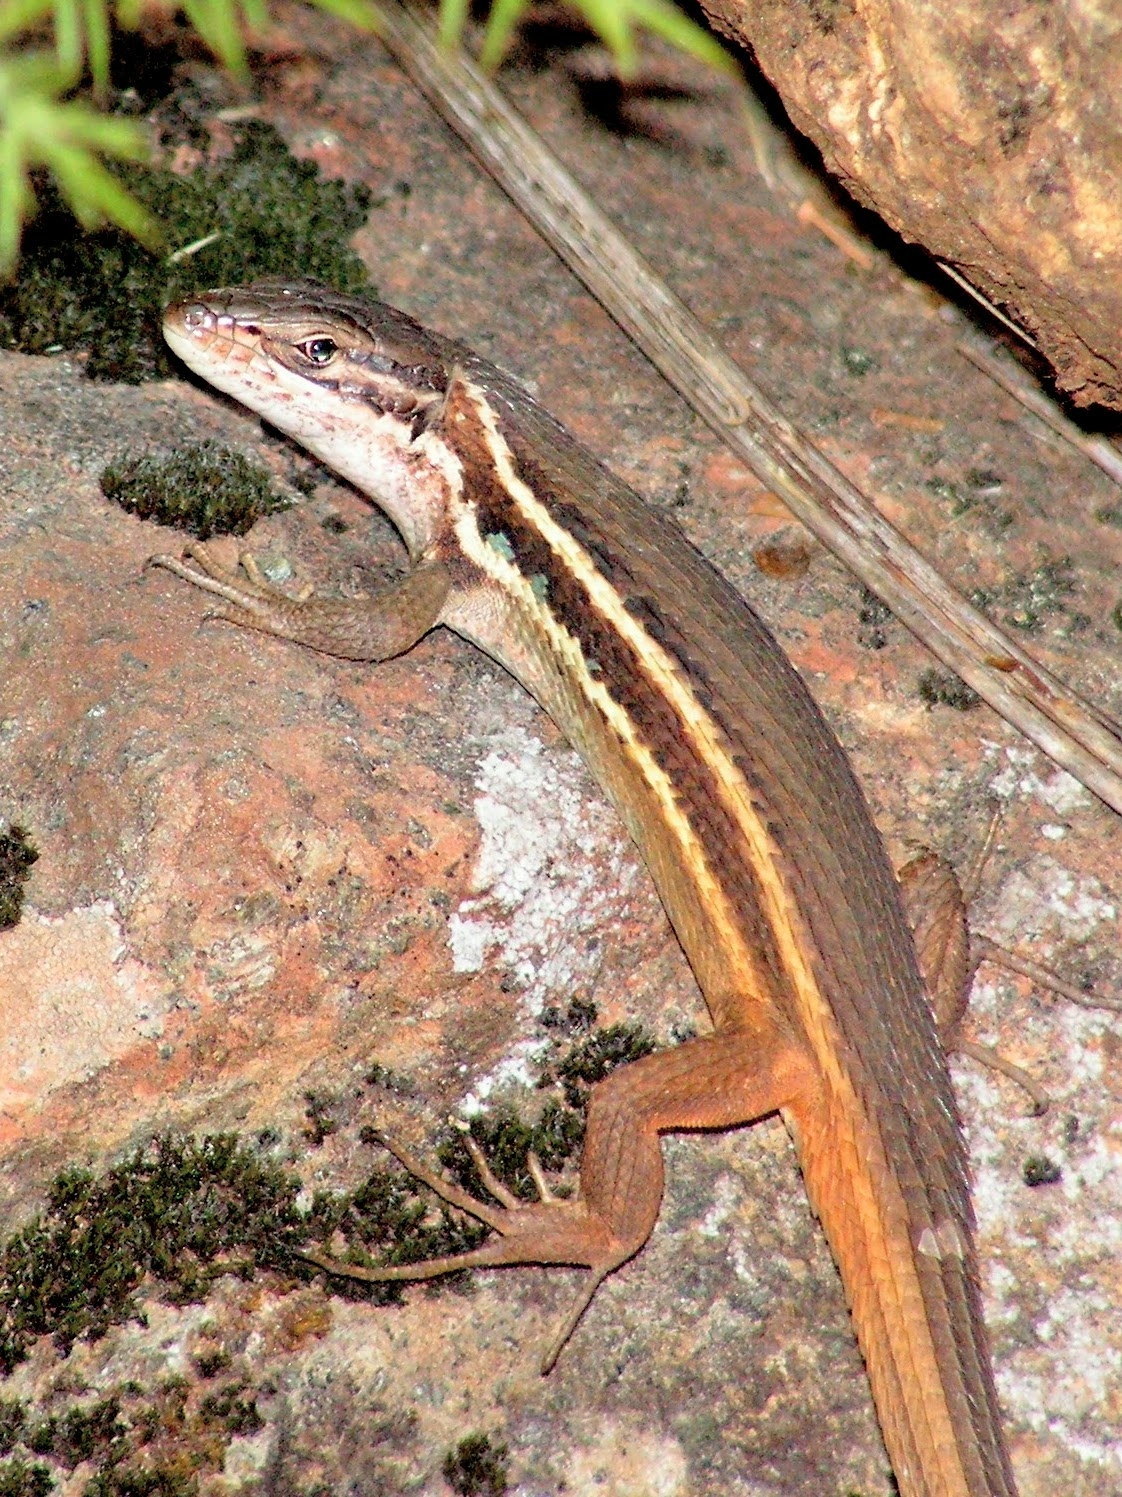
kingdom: Animalia
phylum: Chordata
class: Squamata
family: Lacertidae
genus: Psammodromus
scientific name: Psammodromus algirus
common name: Algerian psammodromus
